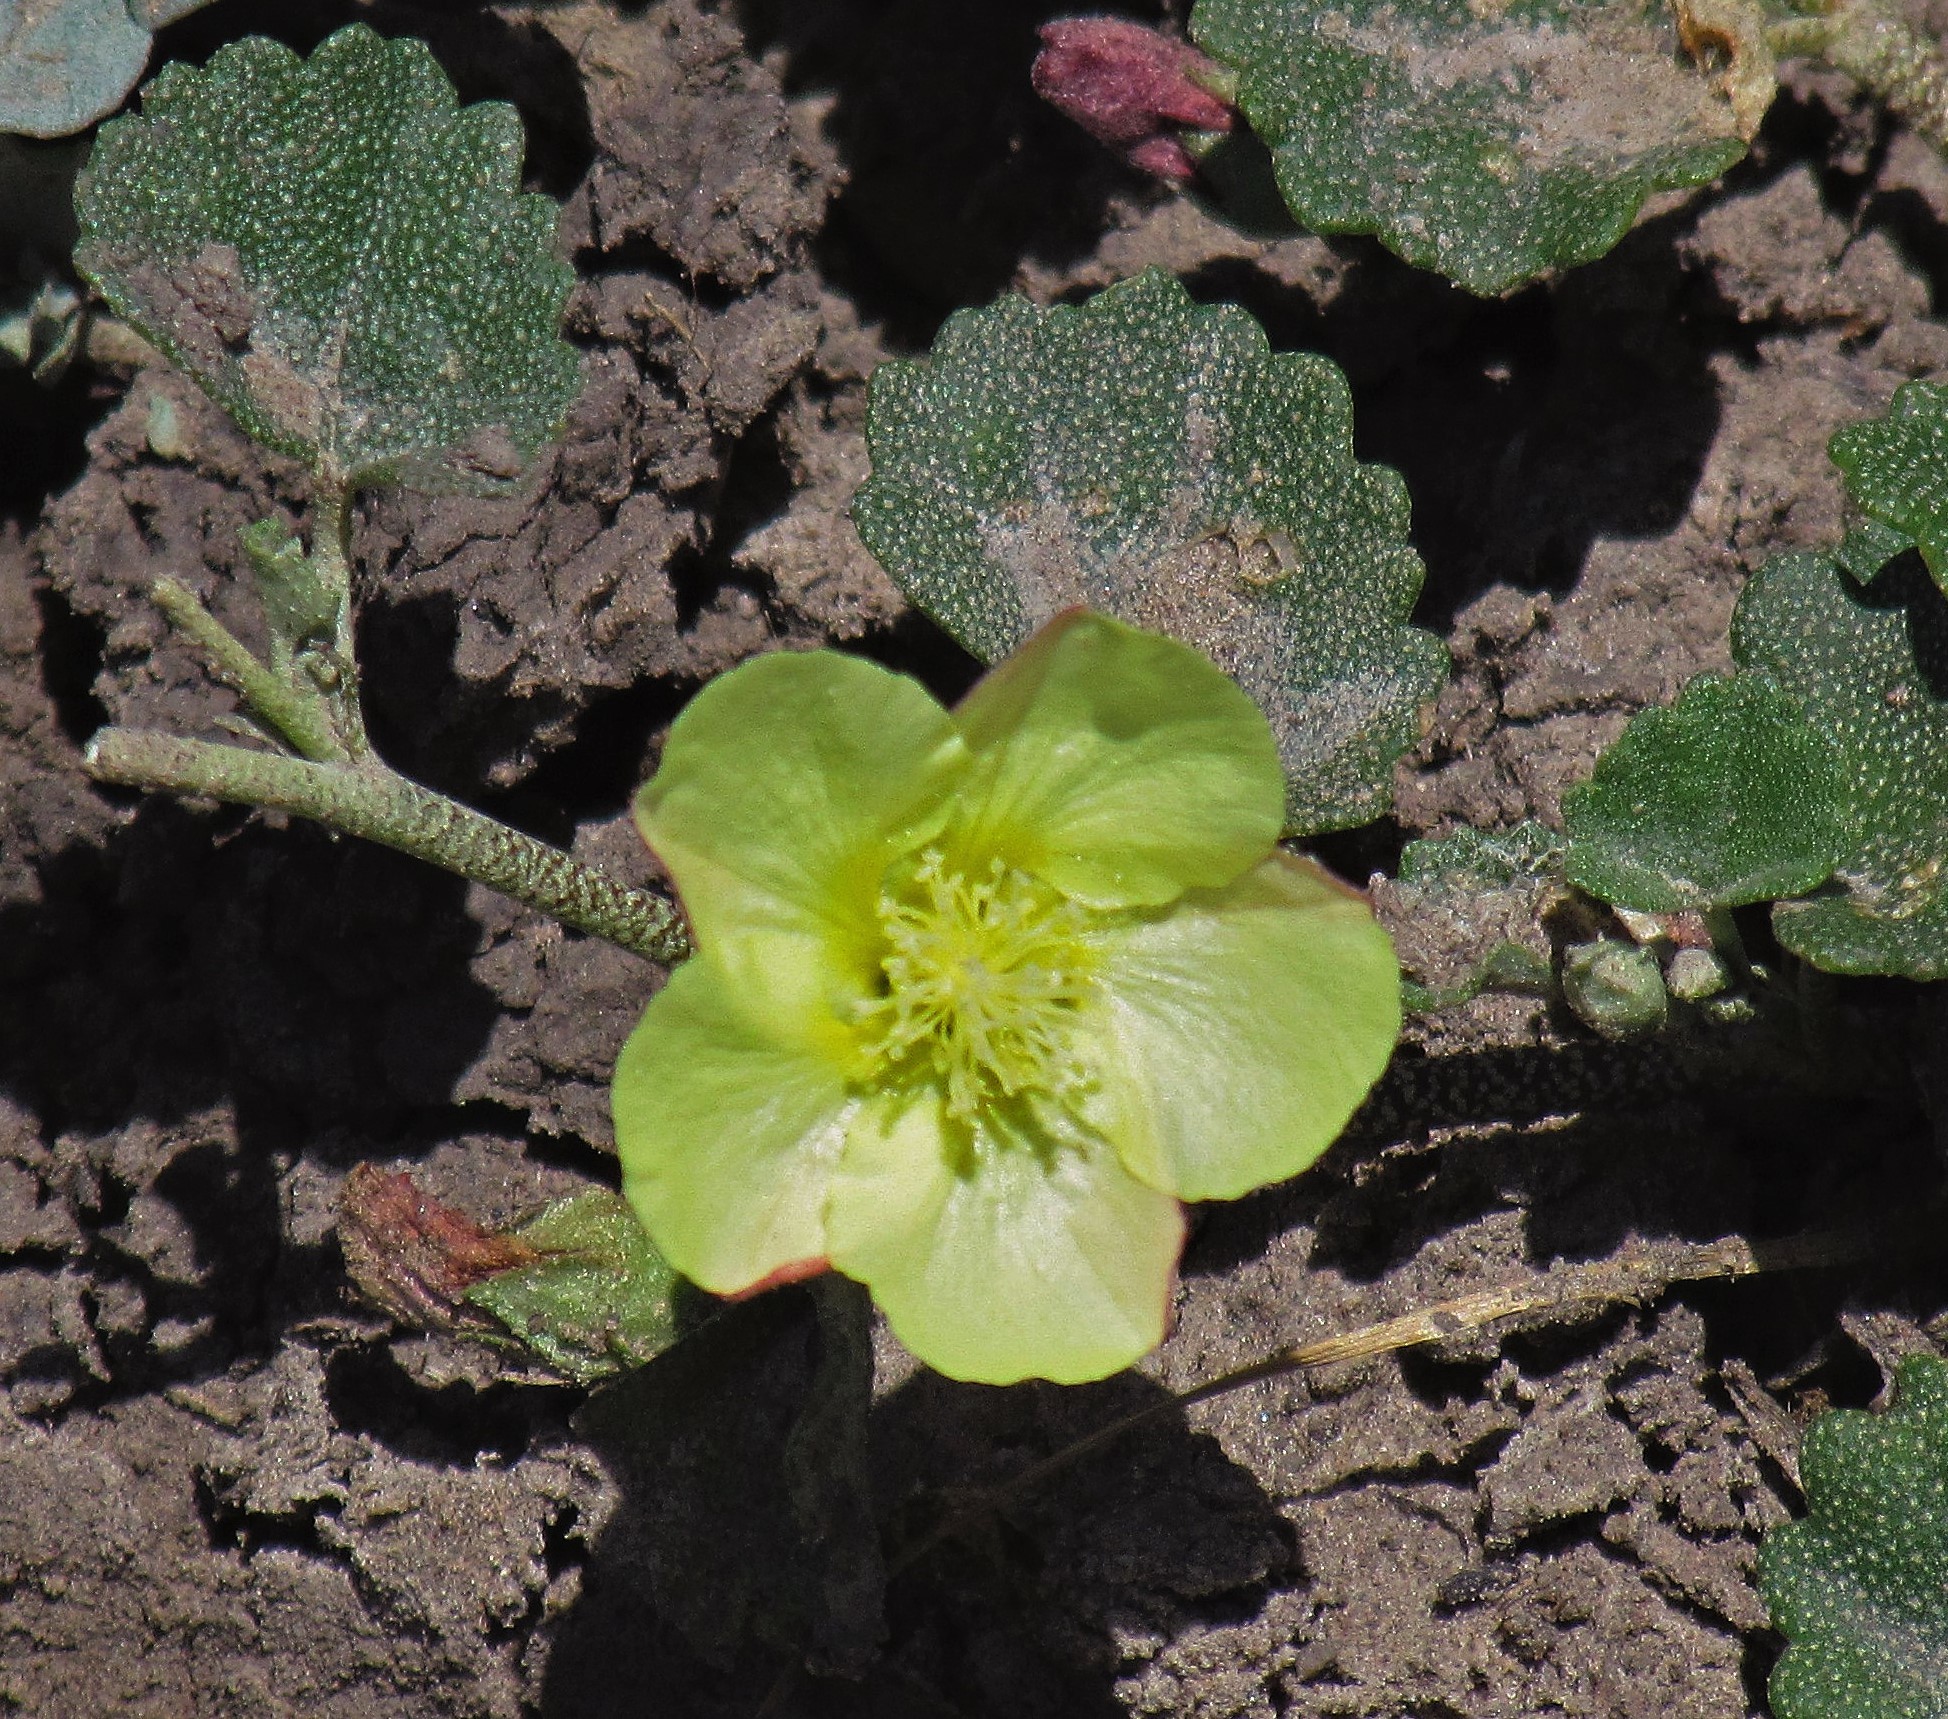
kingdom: Plantae
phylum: Tracheophyta
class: Magnoliopsida
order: Malvales
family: Malvaceae
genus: Malvella
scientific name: Malvella leprosa
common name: Alkali-mallow
